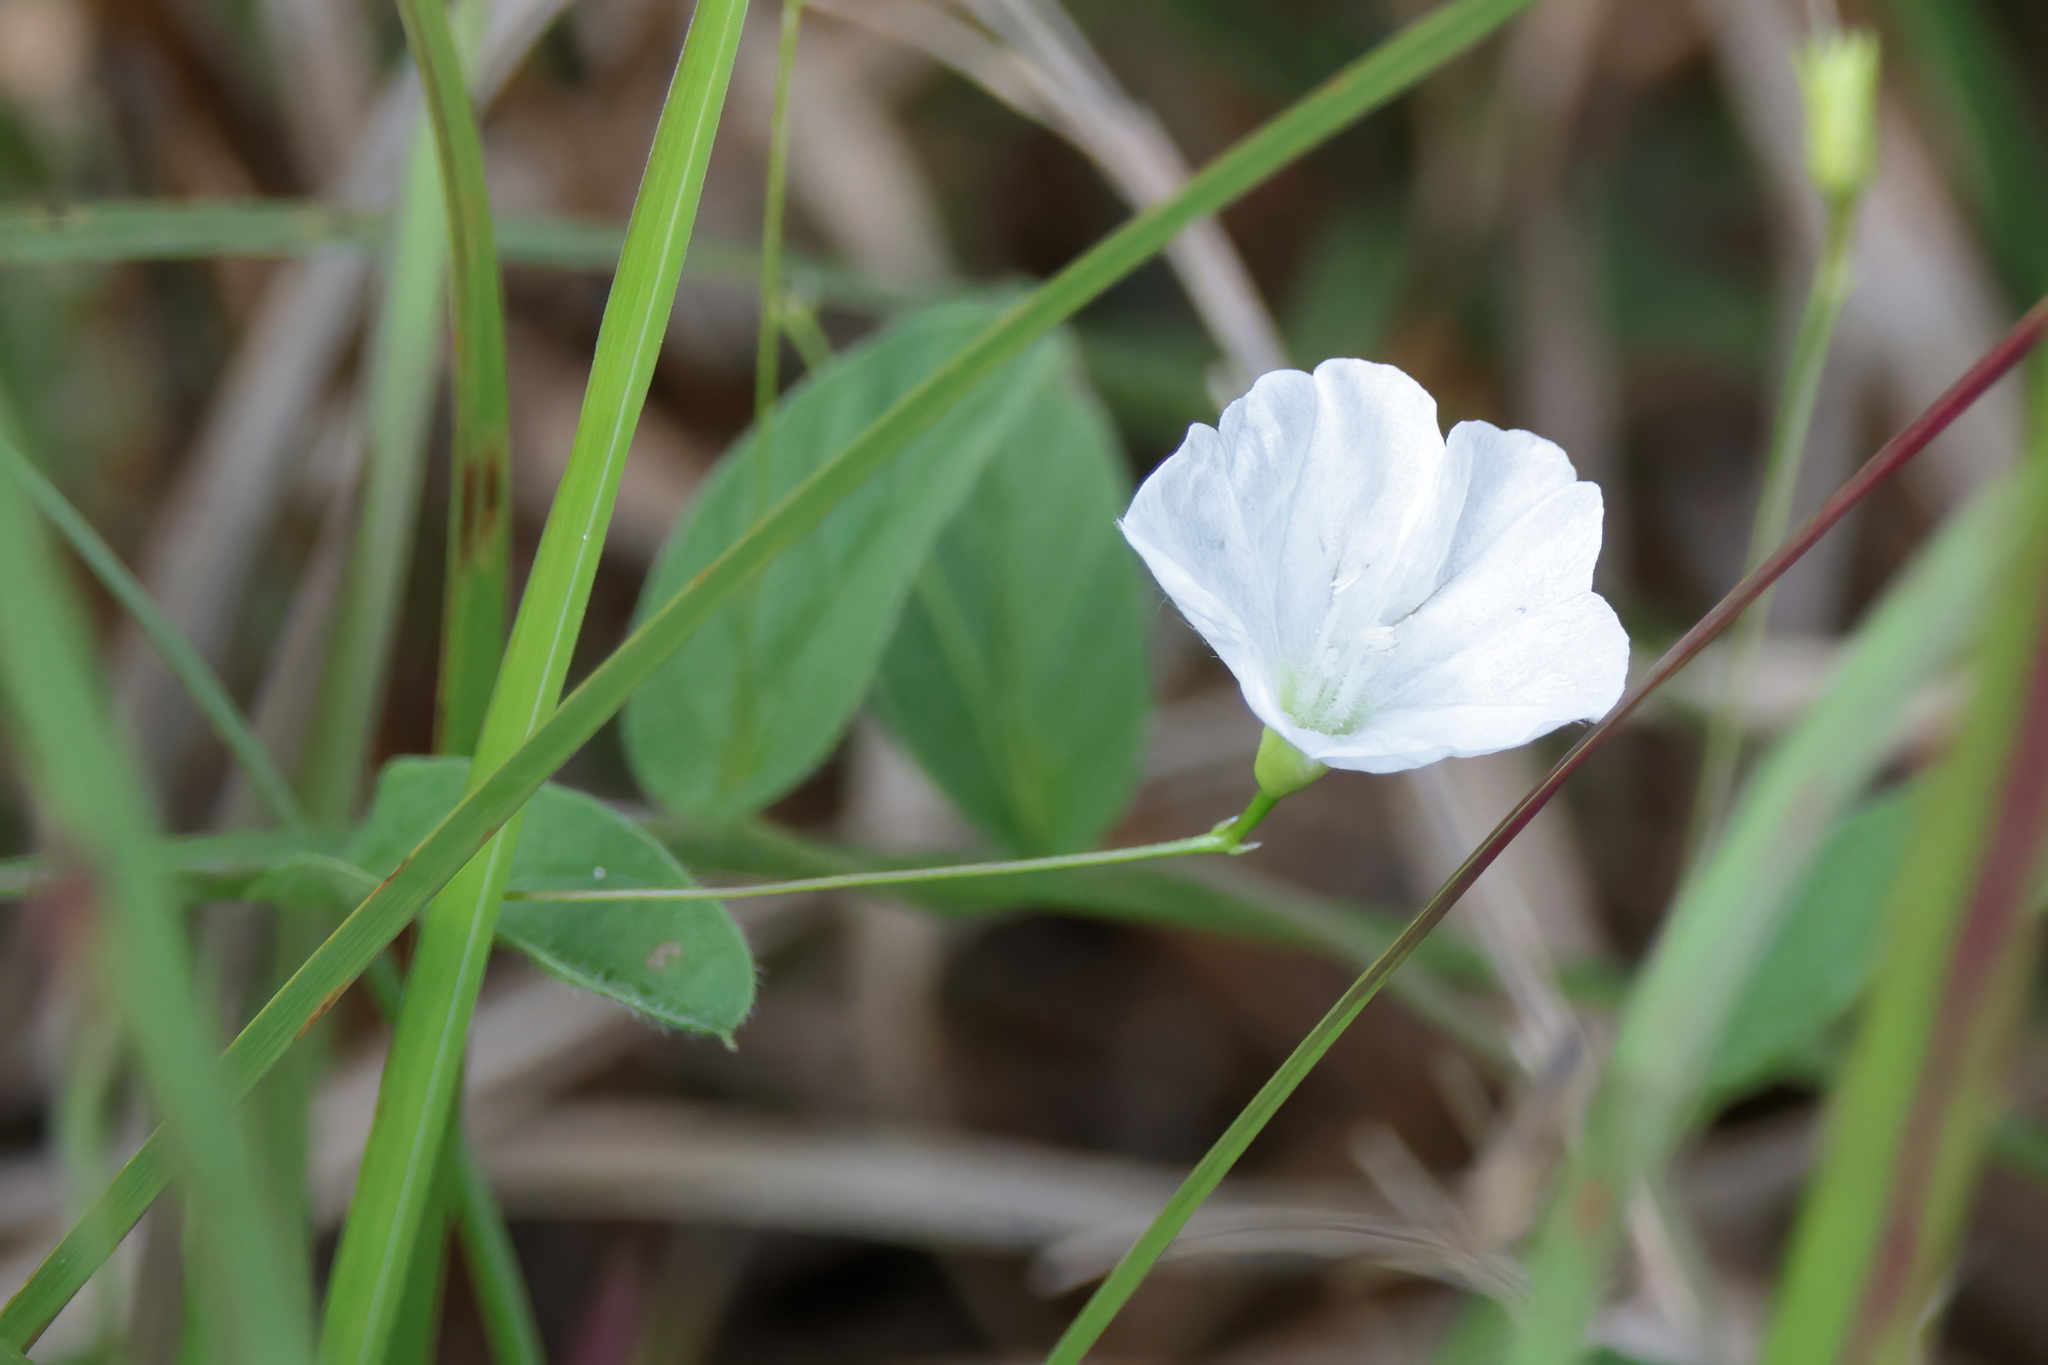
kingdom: Plantae
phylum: Tracheophyta
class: Magnoliopsida
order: Solanales
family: Convolvulaceae
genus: Stylisma
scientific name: Stylisma humistrata
